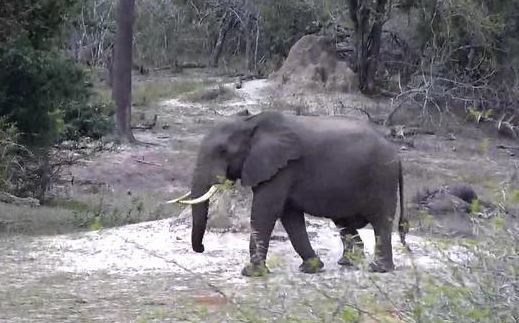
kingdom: Animalia
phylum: Chordata
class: Mammalia
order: Proboscidea
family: Elephantidae
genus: Loxodonta
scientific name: Loxodonta africana
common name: African elephant
